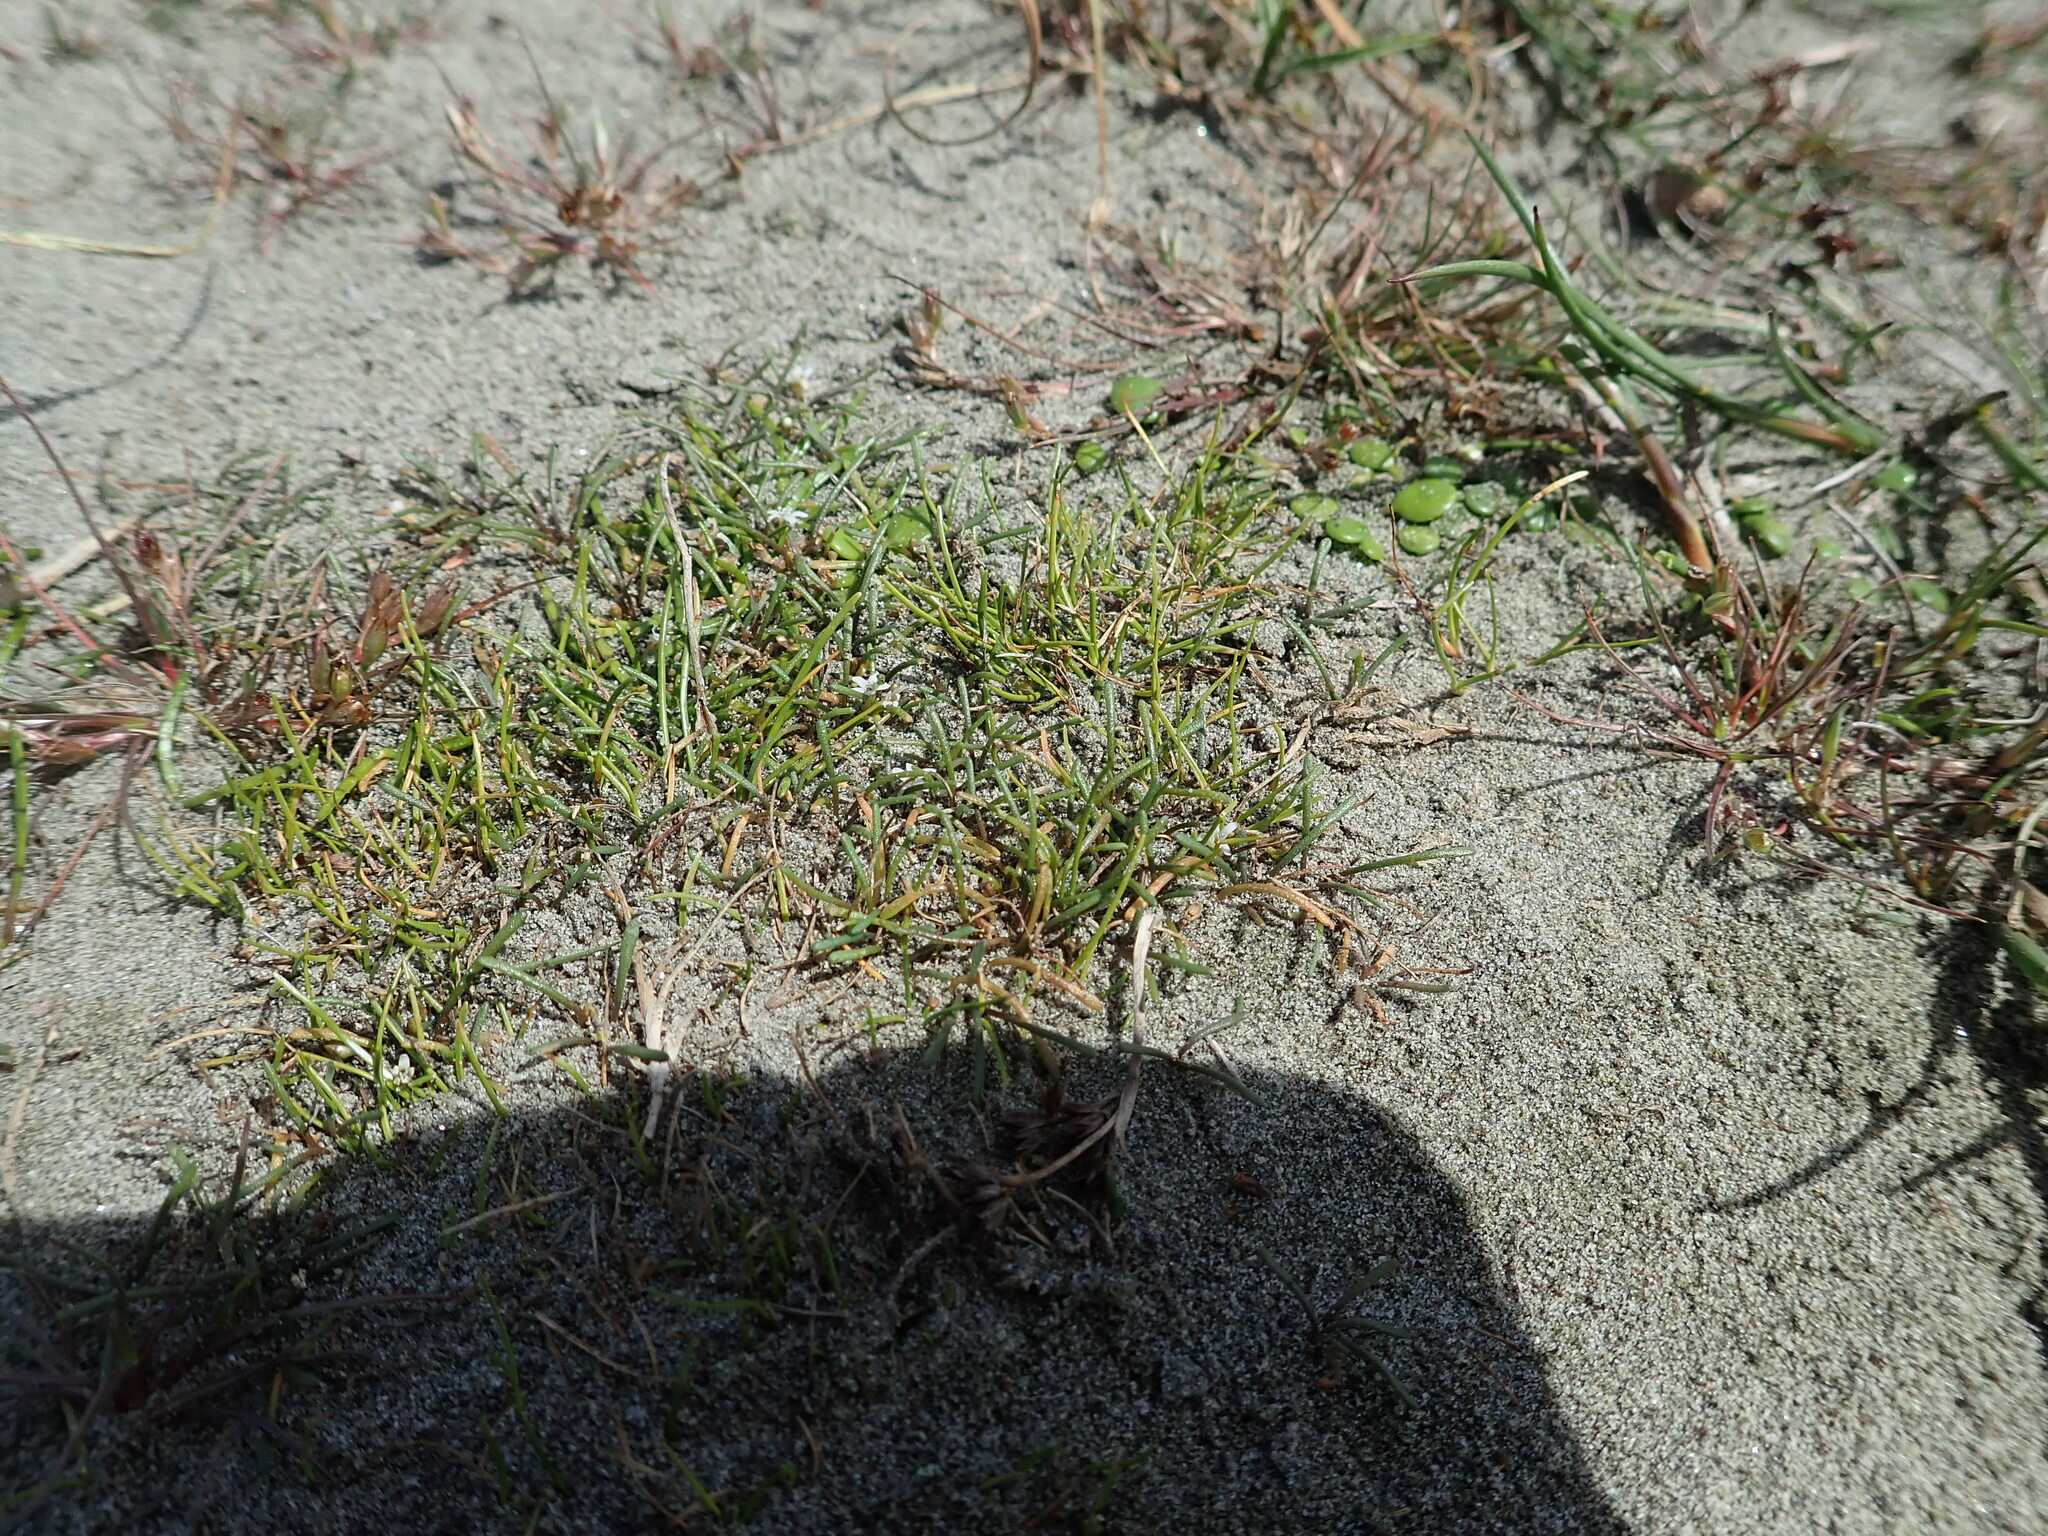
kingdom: Plantae
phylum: Tracheophyta
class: Magnoliopsida
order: Lamiales
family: Scrophulariaceae
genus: Limosella
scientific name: Limosella australis
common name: Welsh mudwort
